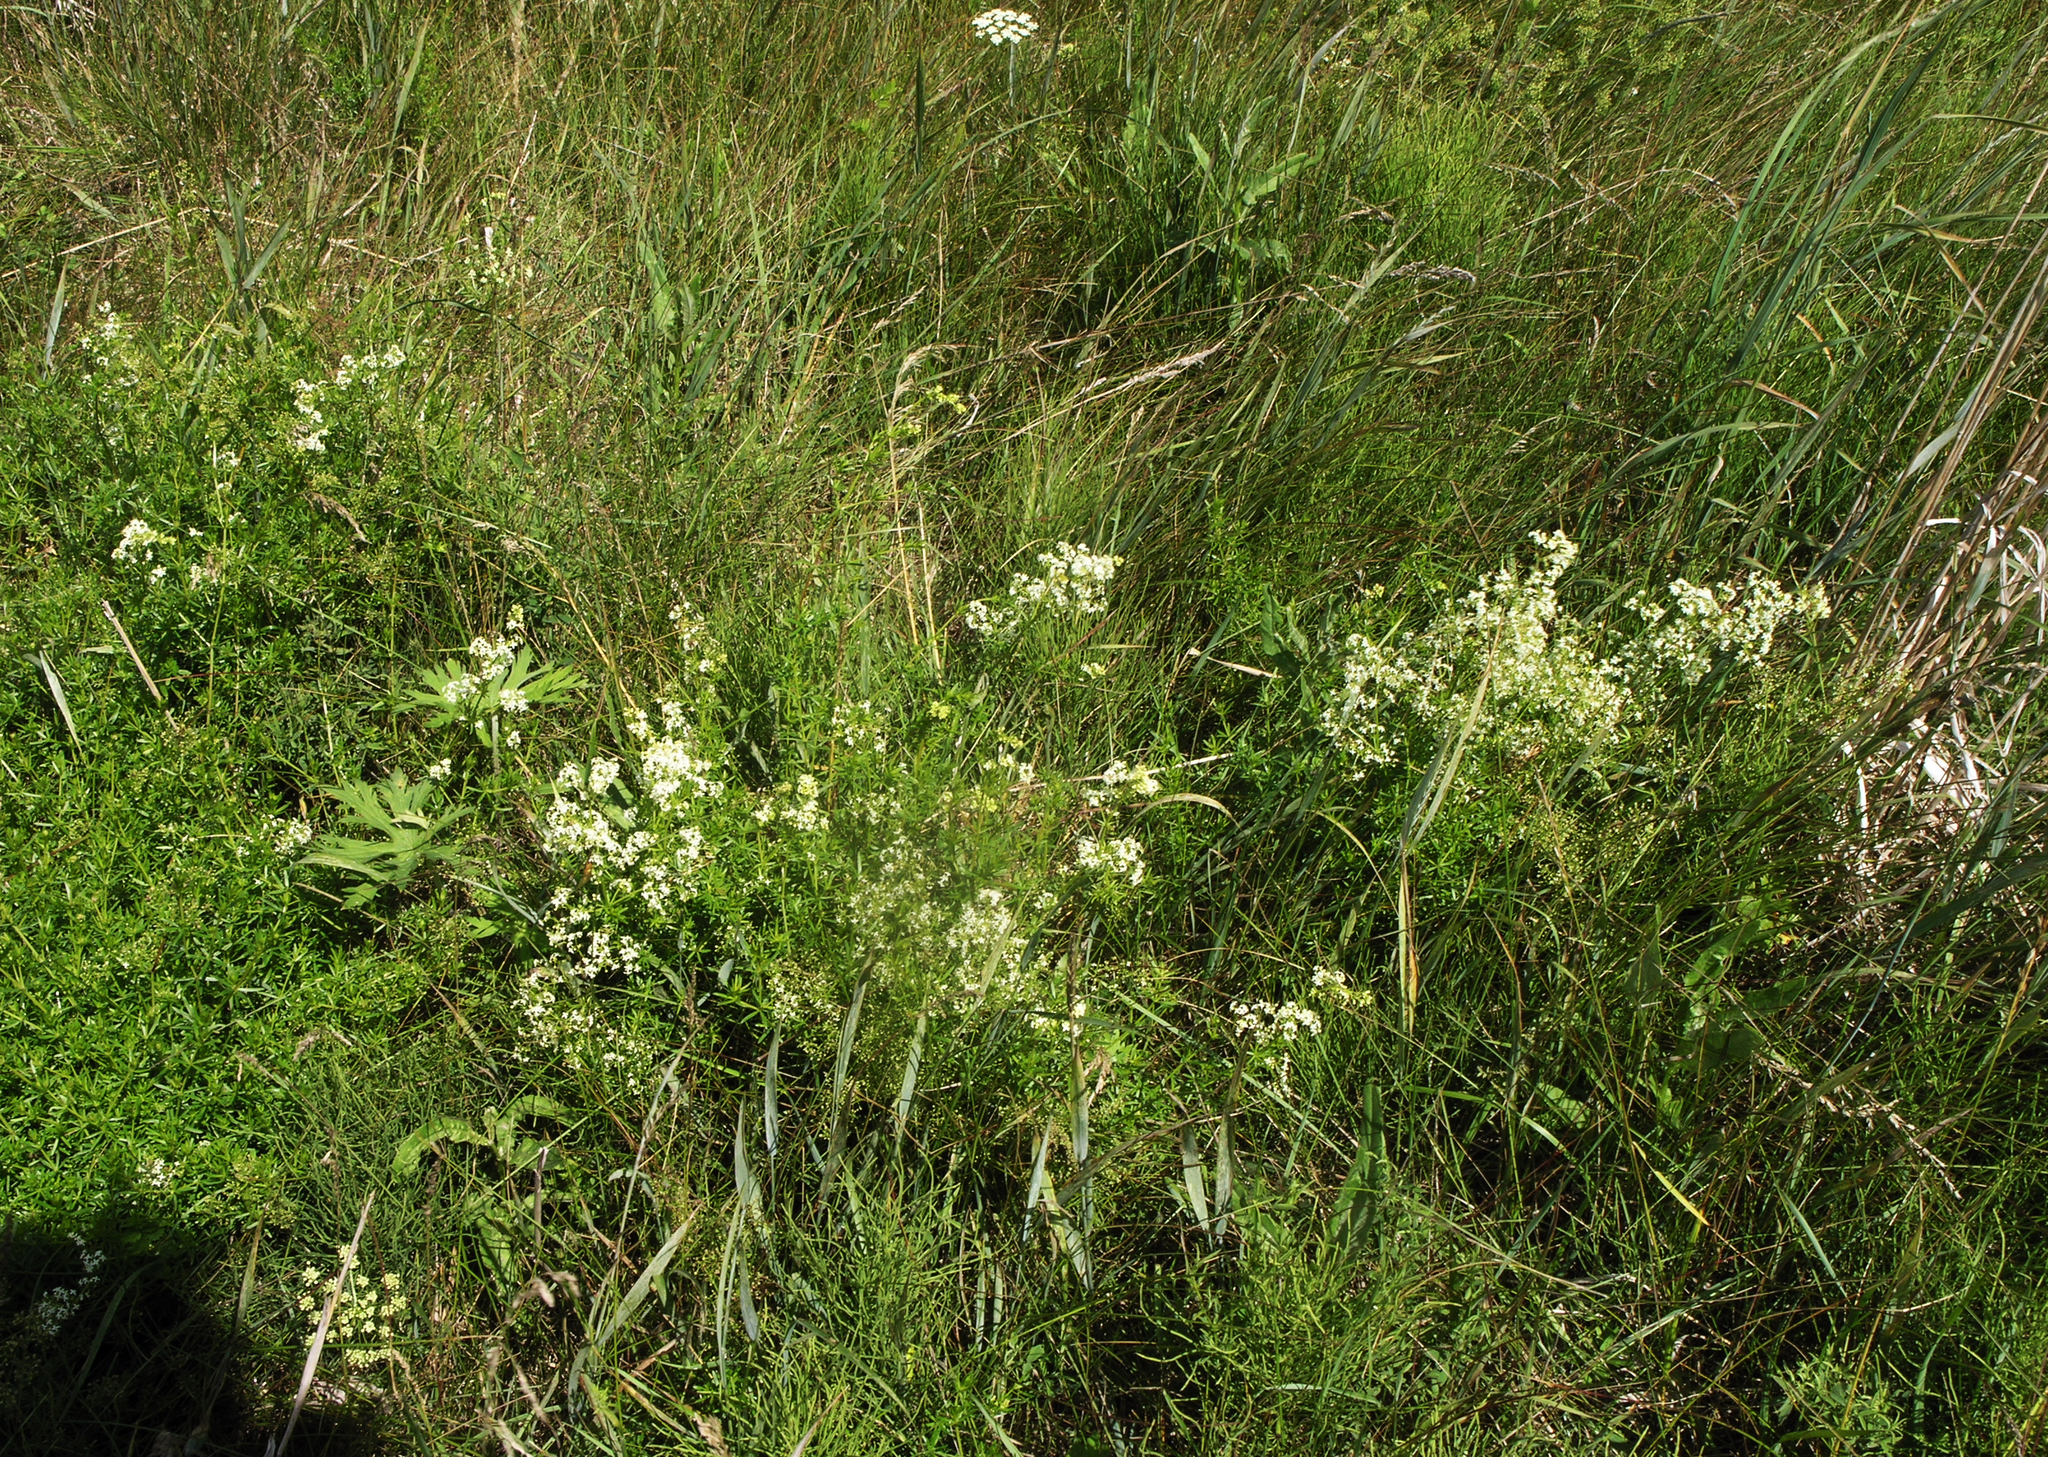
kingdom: Plantae
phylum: Tracheophyta
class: Magnoliopsida
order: Gentianales
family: Rubiaceae
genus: Galium
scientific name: Galium mollugo
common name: Hedge bedstraw
